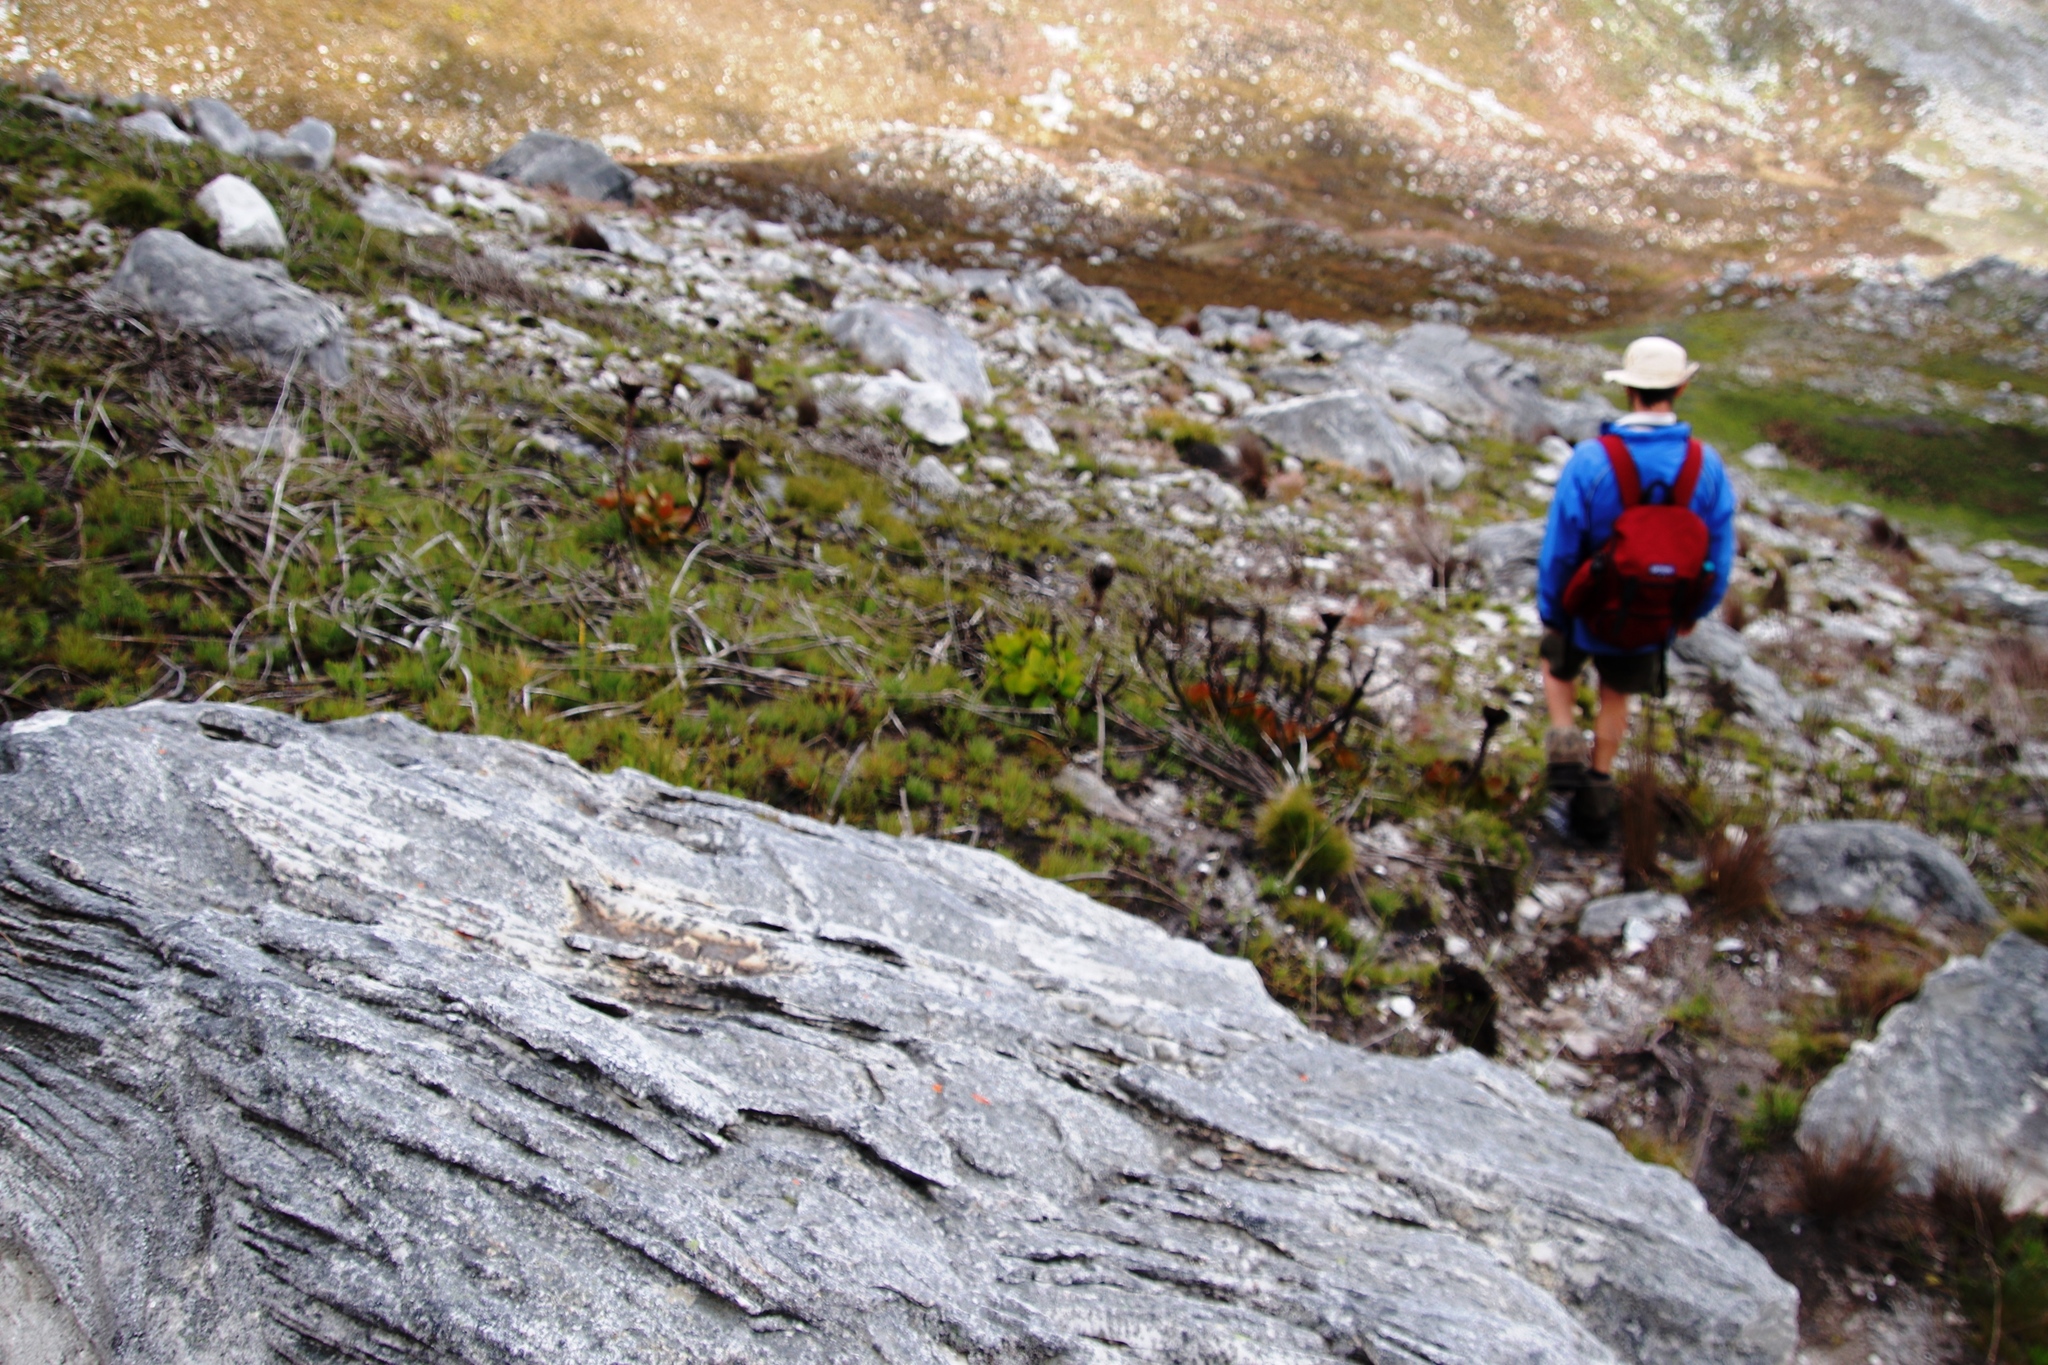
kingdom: Plantae
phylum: Tracheophyta
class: Magnoliopsida
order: Proteales
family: Proteaceae
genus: Protea
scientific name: Protea cynaroides
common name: King protea
